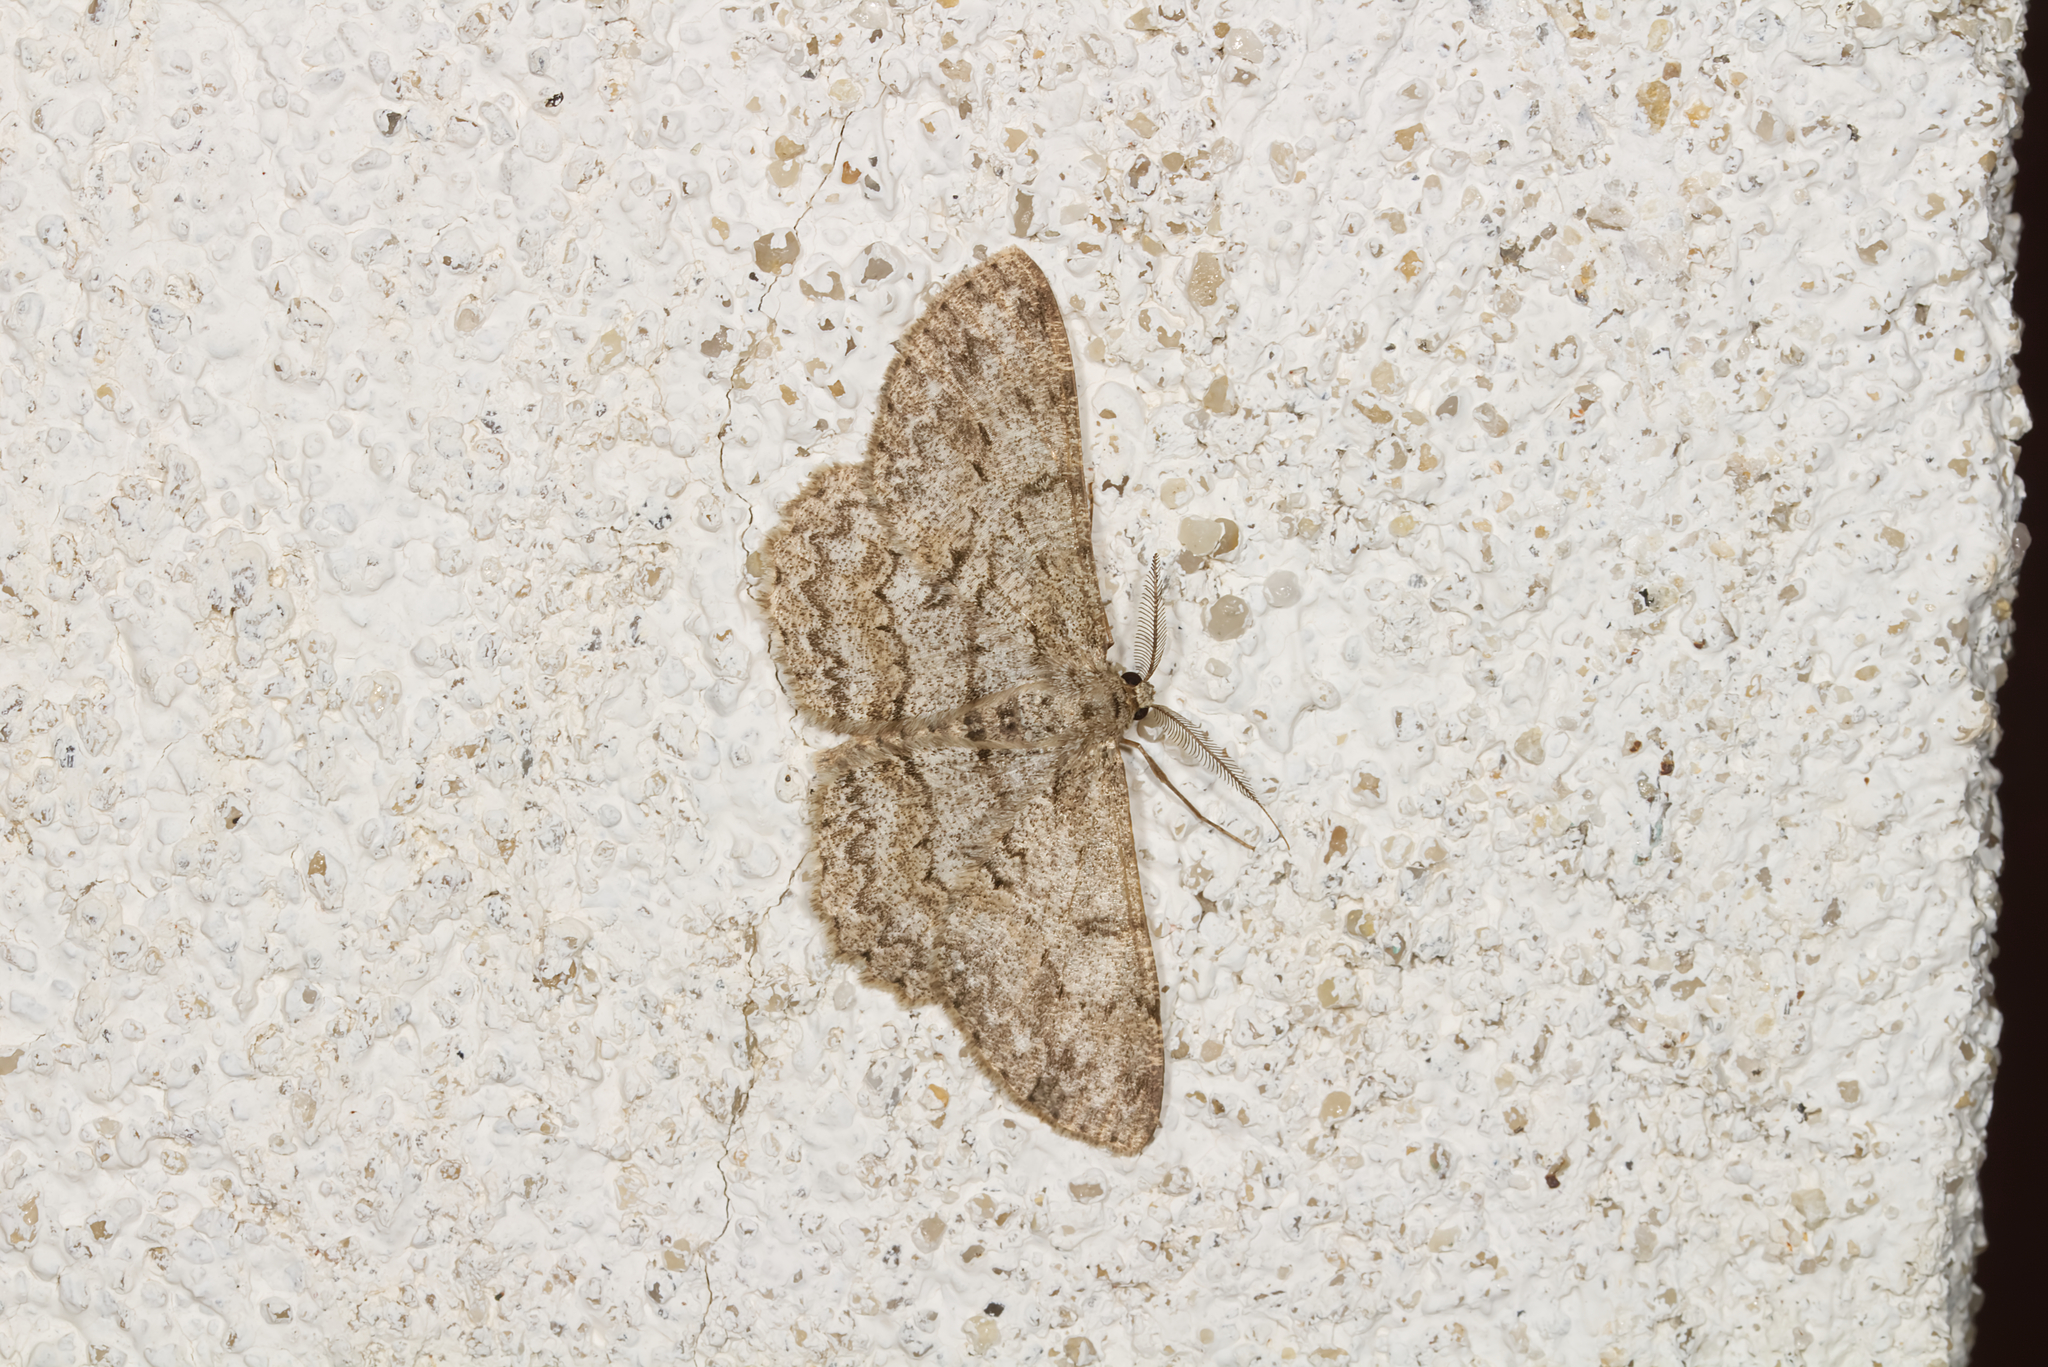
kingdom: Animalia
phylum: Arthropoda
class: Insecta
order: Lepidoptera
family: Geometridae
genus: Hypomecis
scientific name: Hypomecis punctinalis
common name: Pale oak beauty
